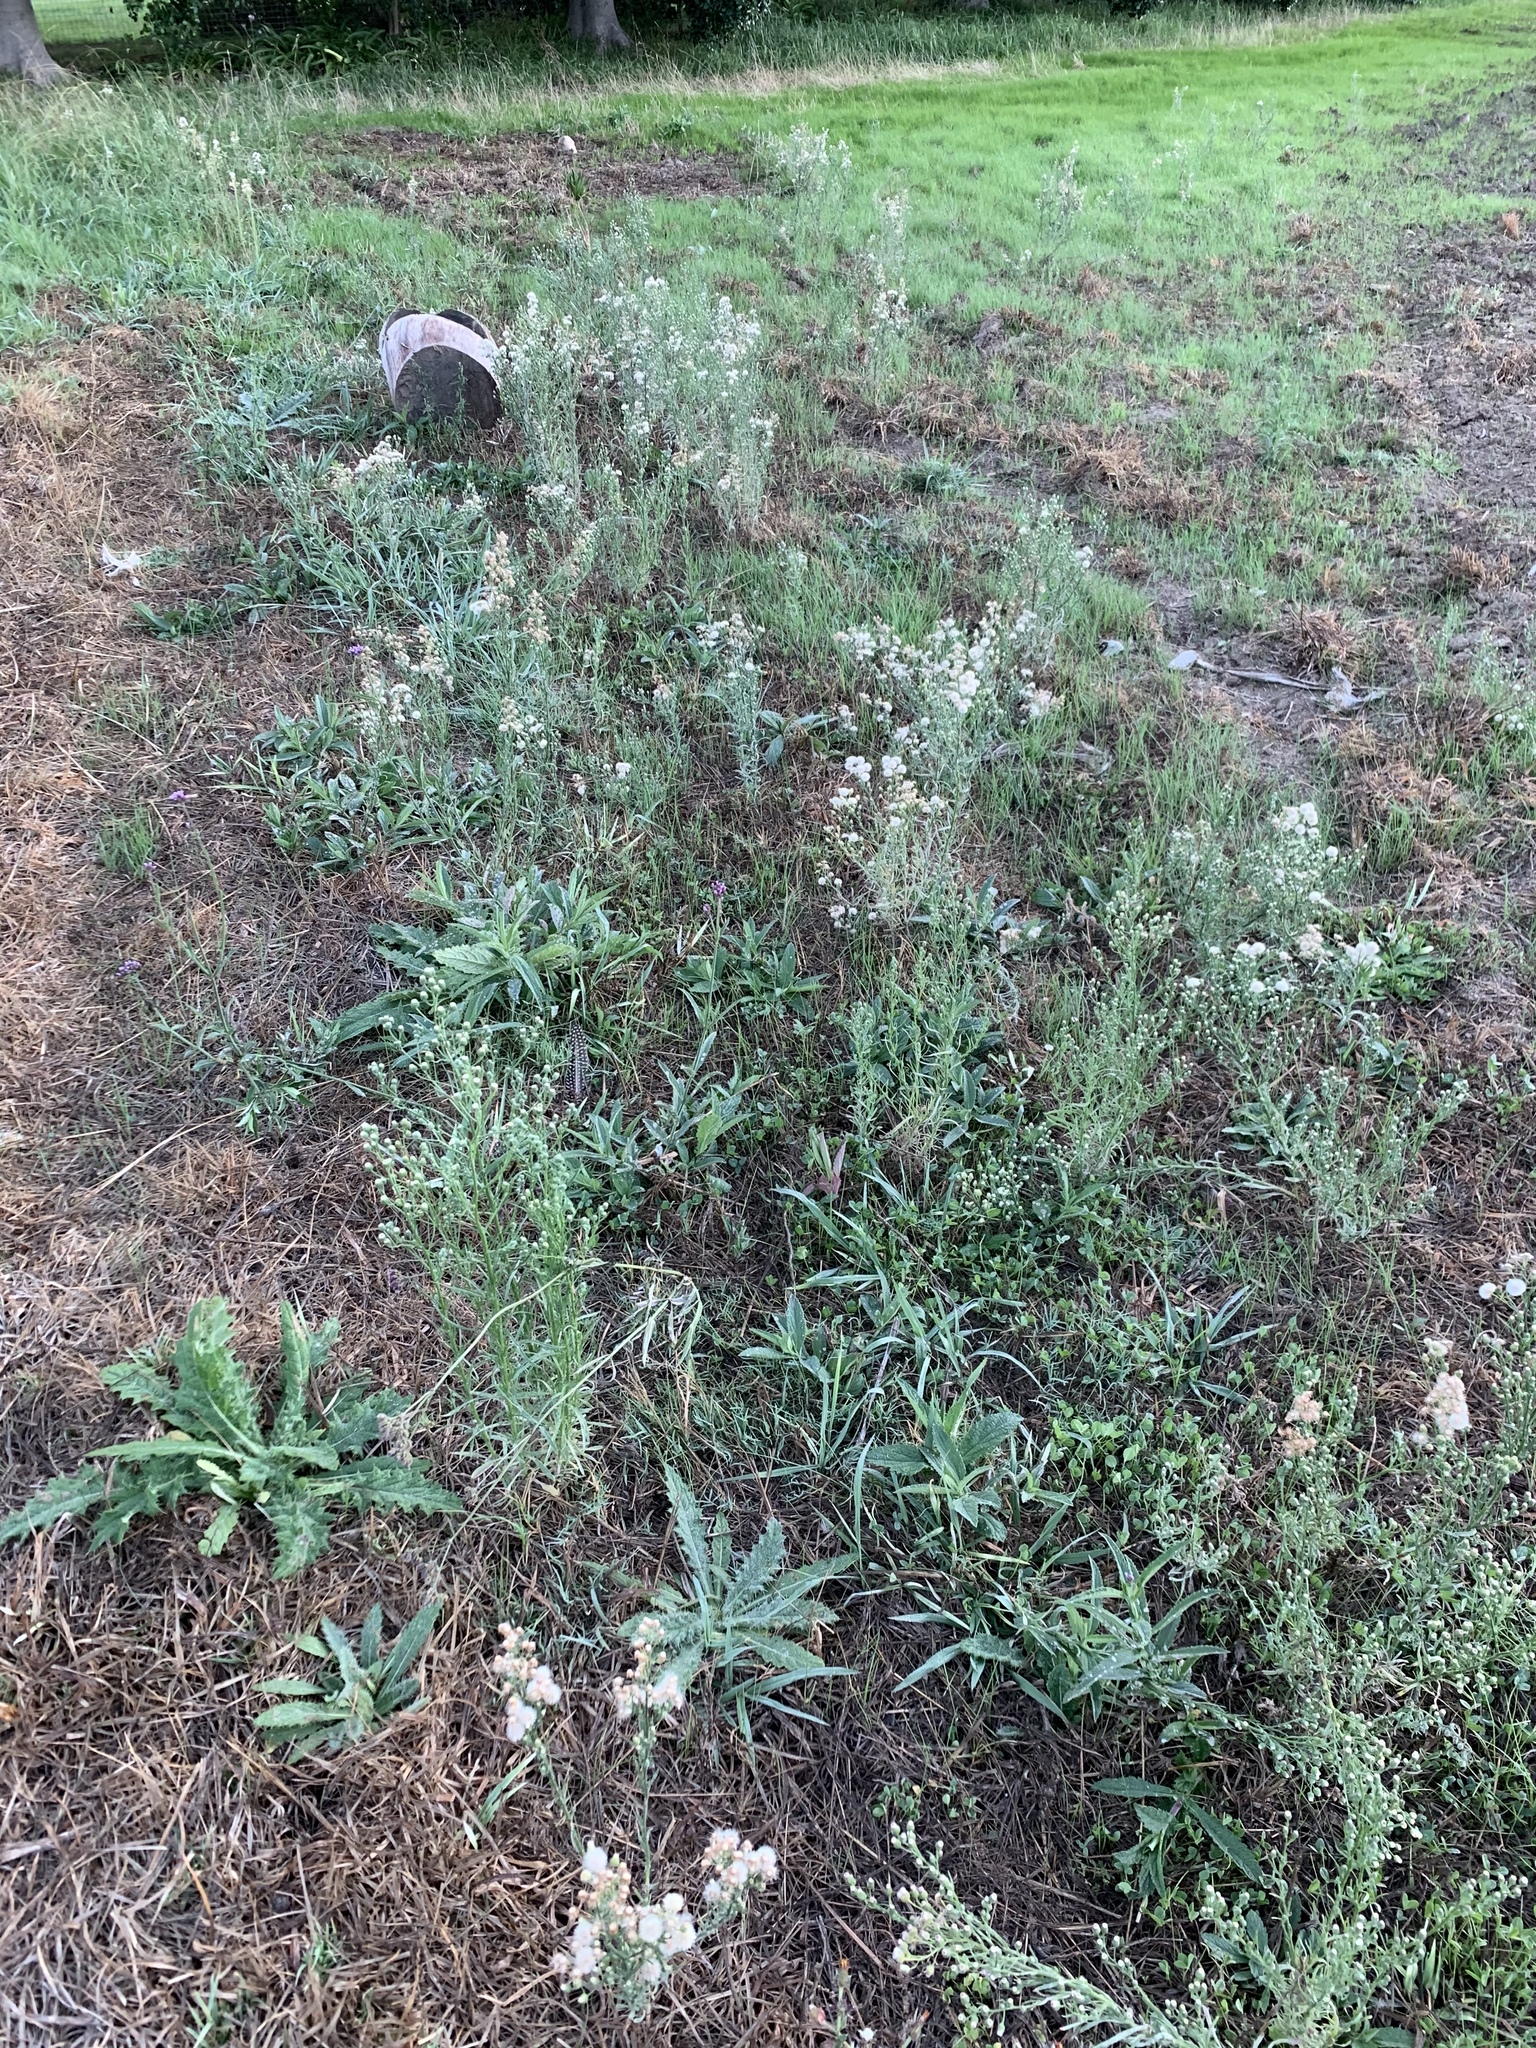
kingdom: Plantae
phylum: Tracheophyta
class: Magnoliopsida
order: Asterales
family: Asteraceae
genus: Erigeron
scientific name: Erigeron bonariensis
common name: Argentine fleabane
